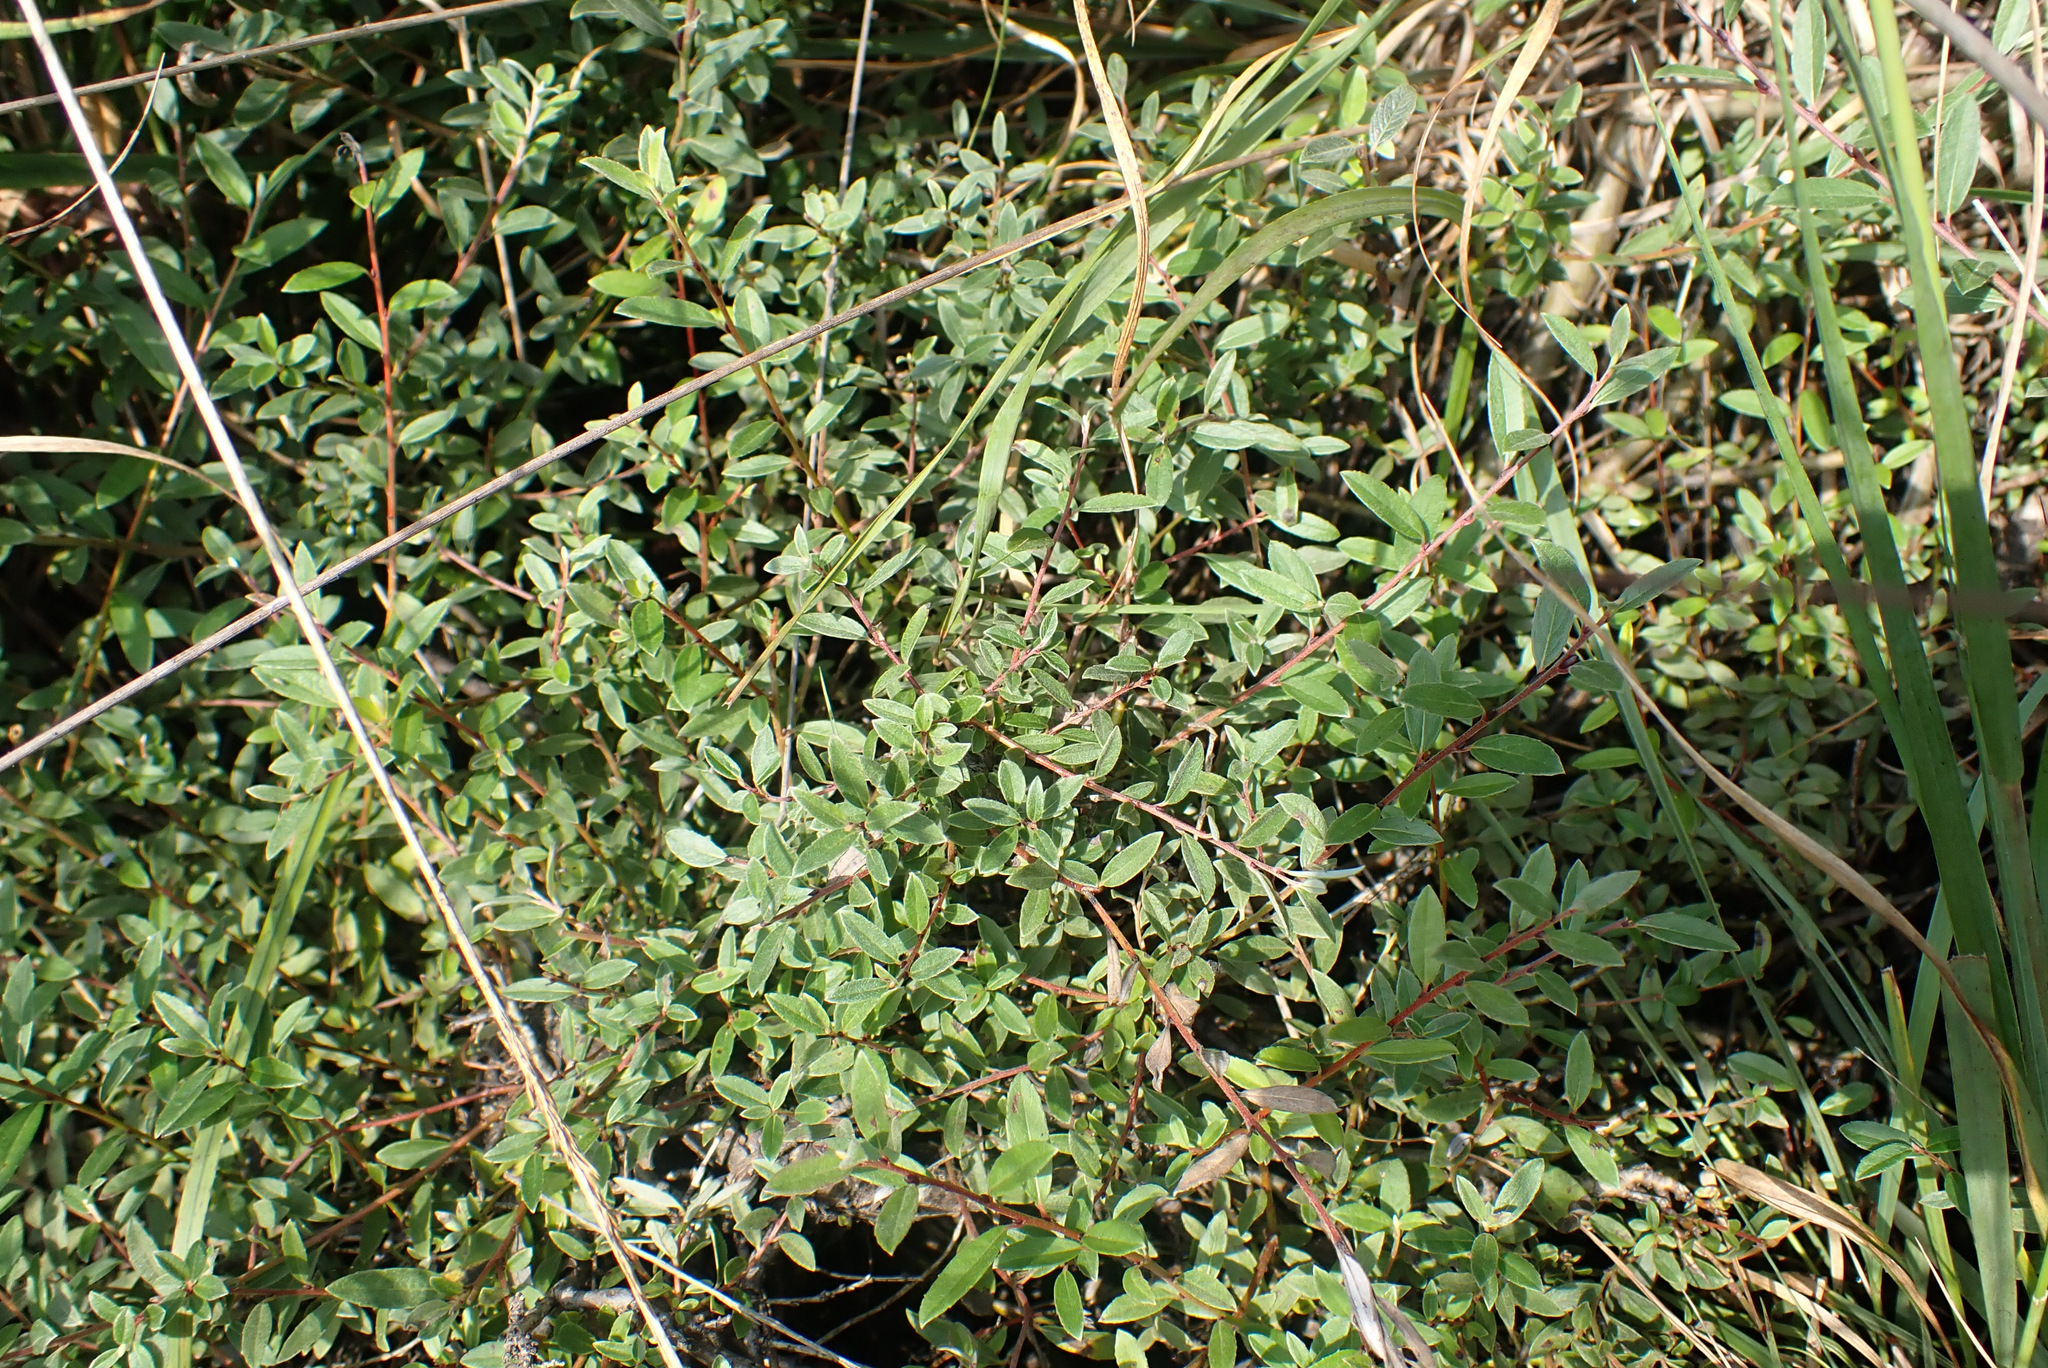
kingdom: Plantae
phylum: Tracheophyta
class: Magnoliopsida
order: Malpighiales
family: Salicaceae
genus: Salix
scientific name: Salix repens
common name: Creeping willow
